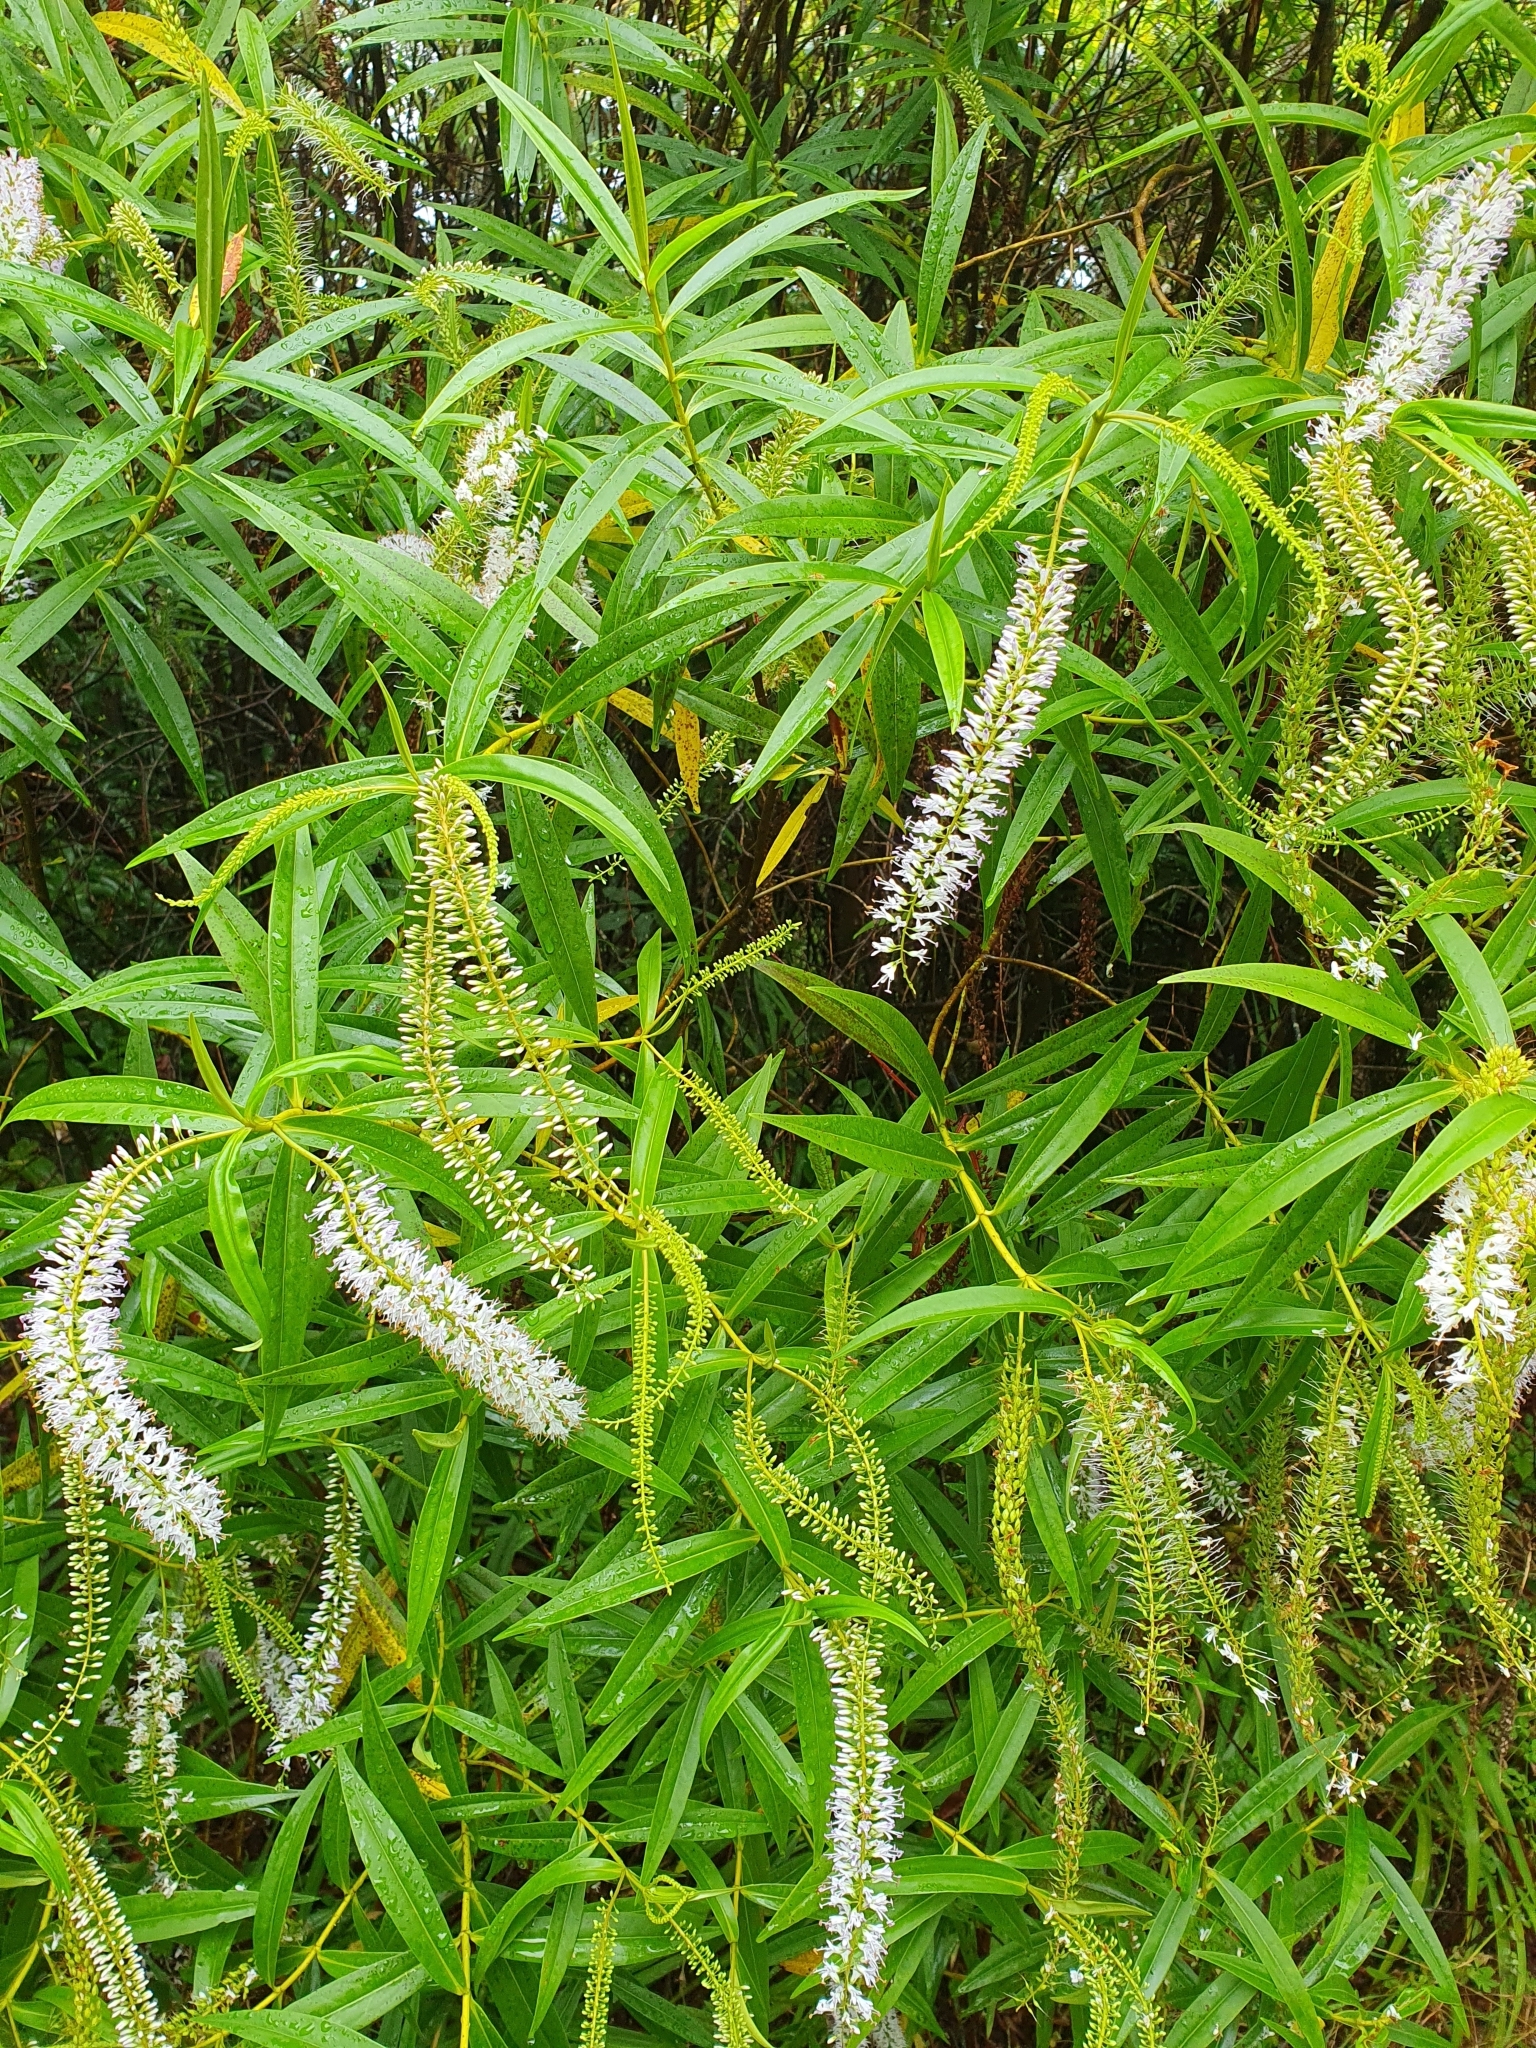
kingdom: Plantae
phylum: Tracheophyta
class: Magnoliopsida
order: Lamiales
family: Plantaginaceae
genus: Veronica
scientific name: Veronica stricta
